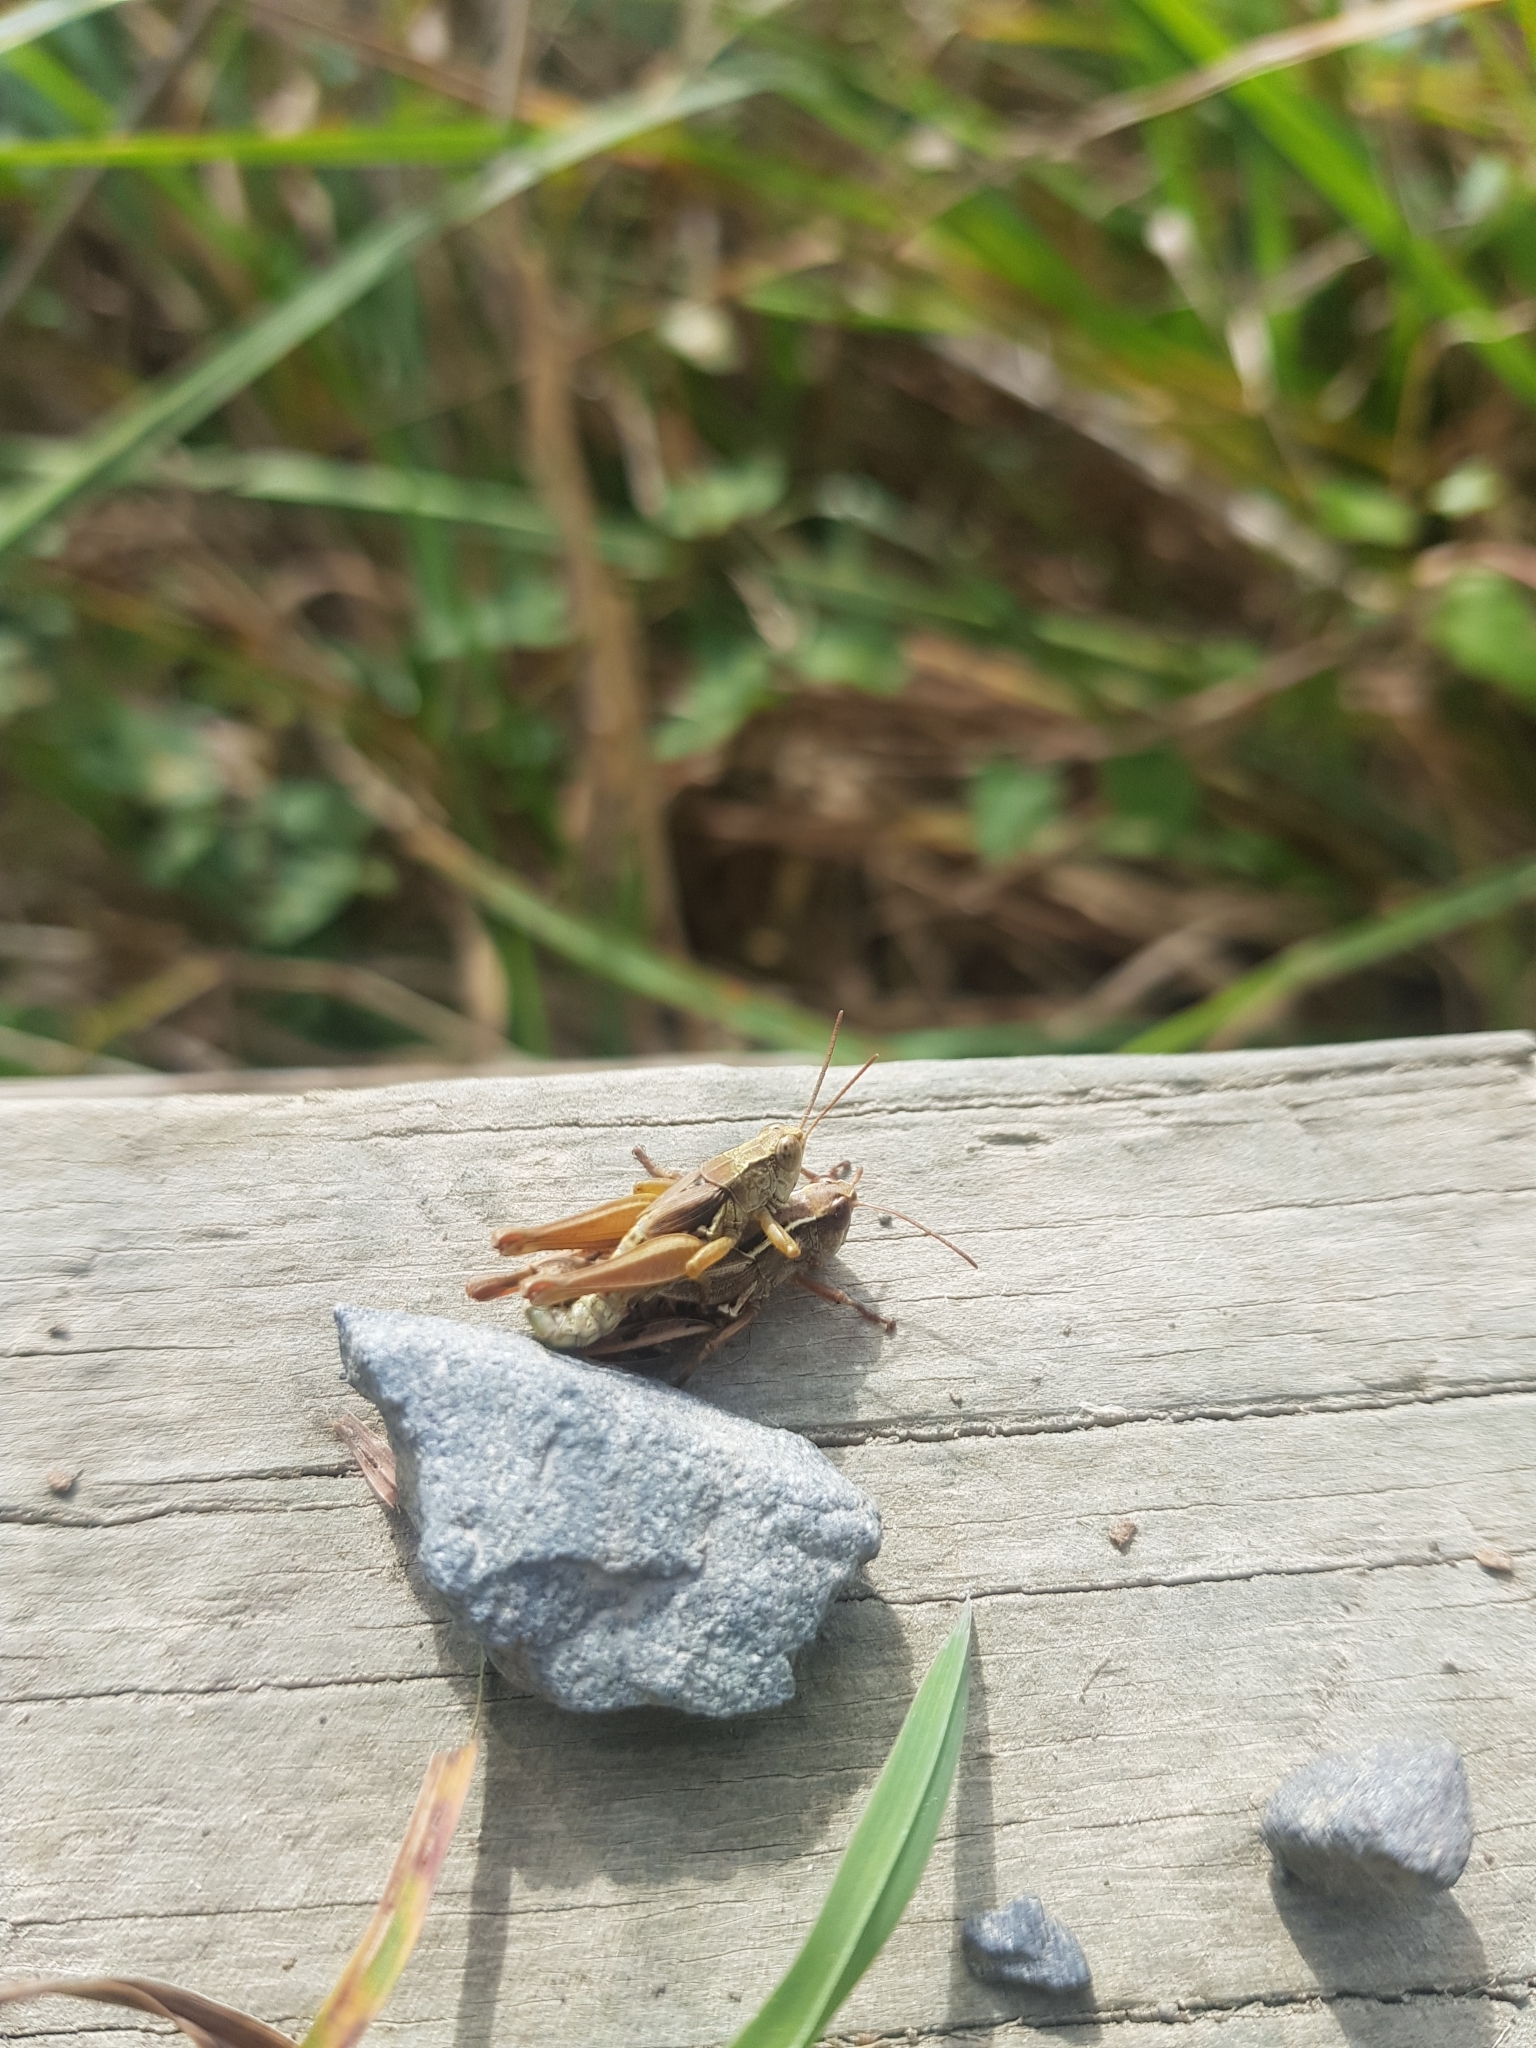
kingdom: Animalia
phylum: Arthropoda
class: Insecta
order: Orthoptera
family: Acrididae
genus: Phaulacridium
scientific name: Phaulacridium marginale
